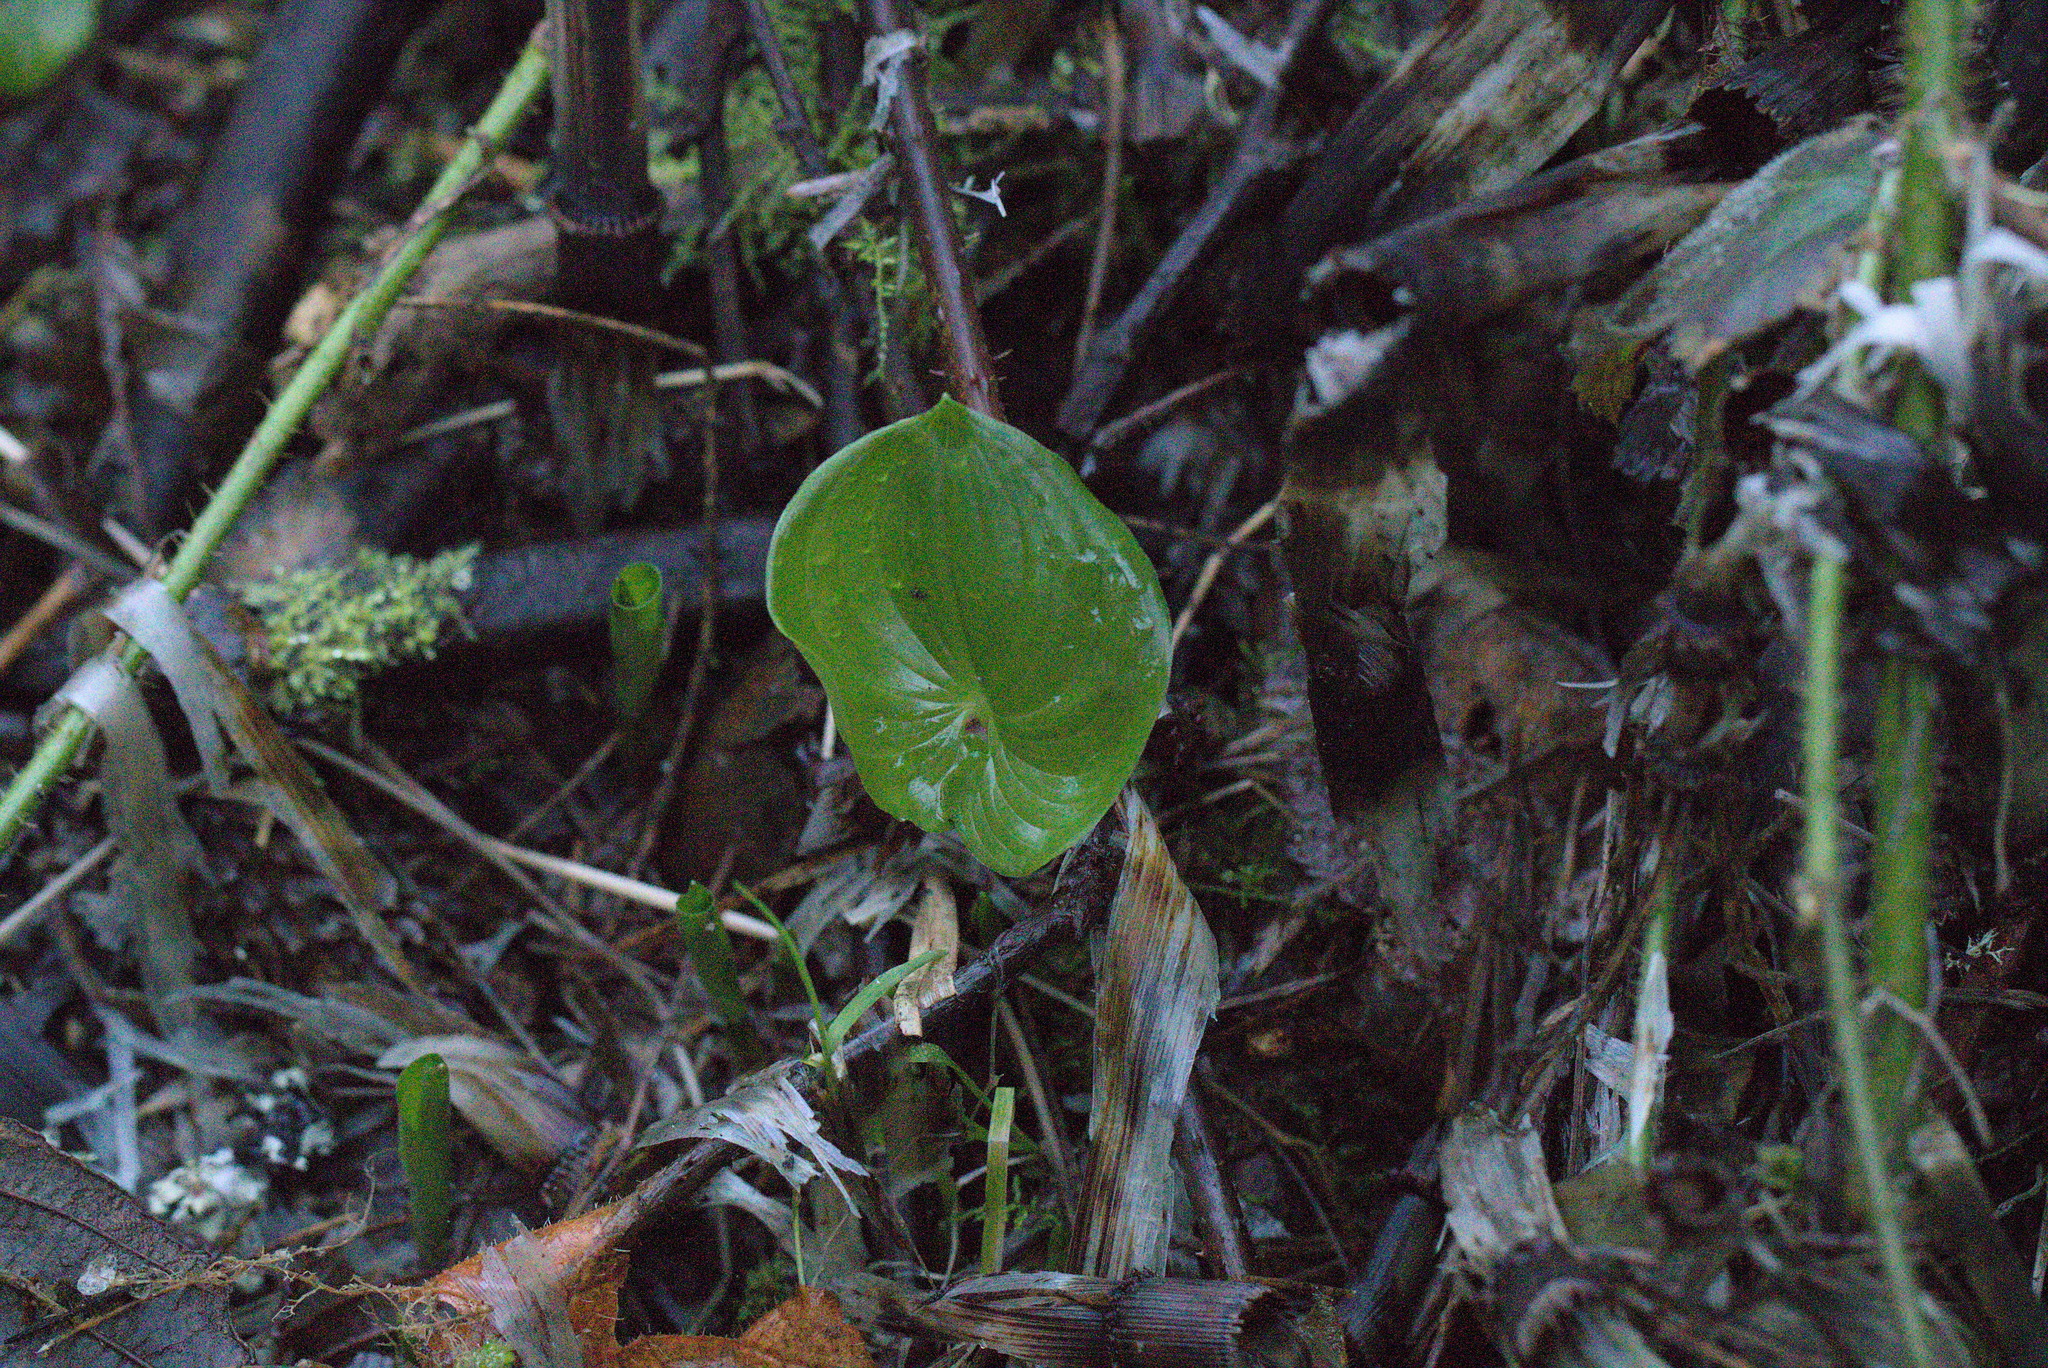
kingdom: Plantae
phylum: Tracheophyta
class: Liliopsida
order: Asparagales
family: Asparagaceae
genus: Maianthemum
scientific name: Maianthemum dilatatum
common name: False lily-of-the-valley
